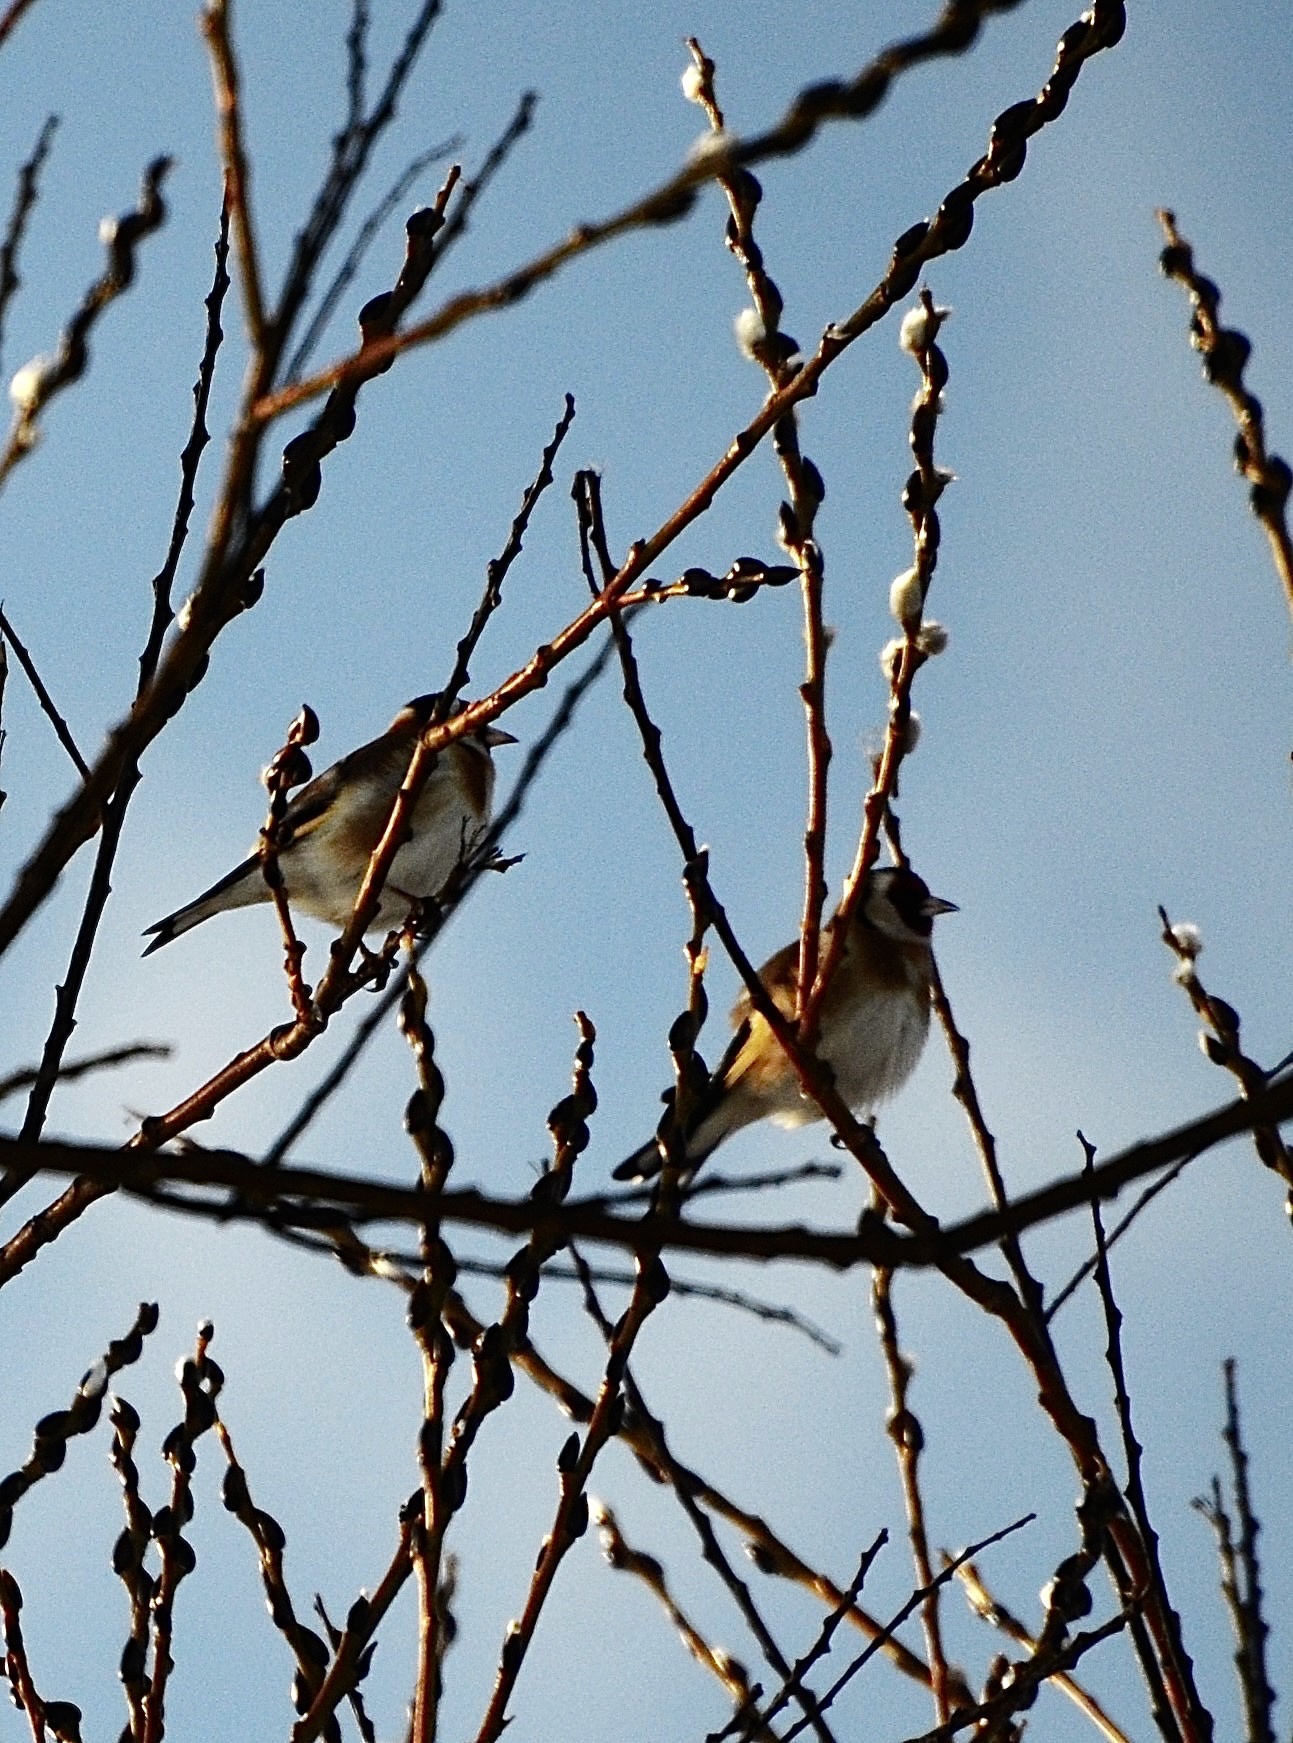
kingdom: Animalia
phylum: Chordata
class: Aves
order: Passeriformes
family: Fringillidae
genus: Carduelis
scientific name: Carduelis carduelis
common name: European goldfinch
